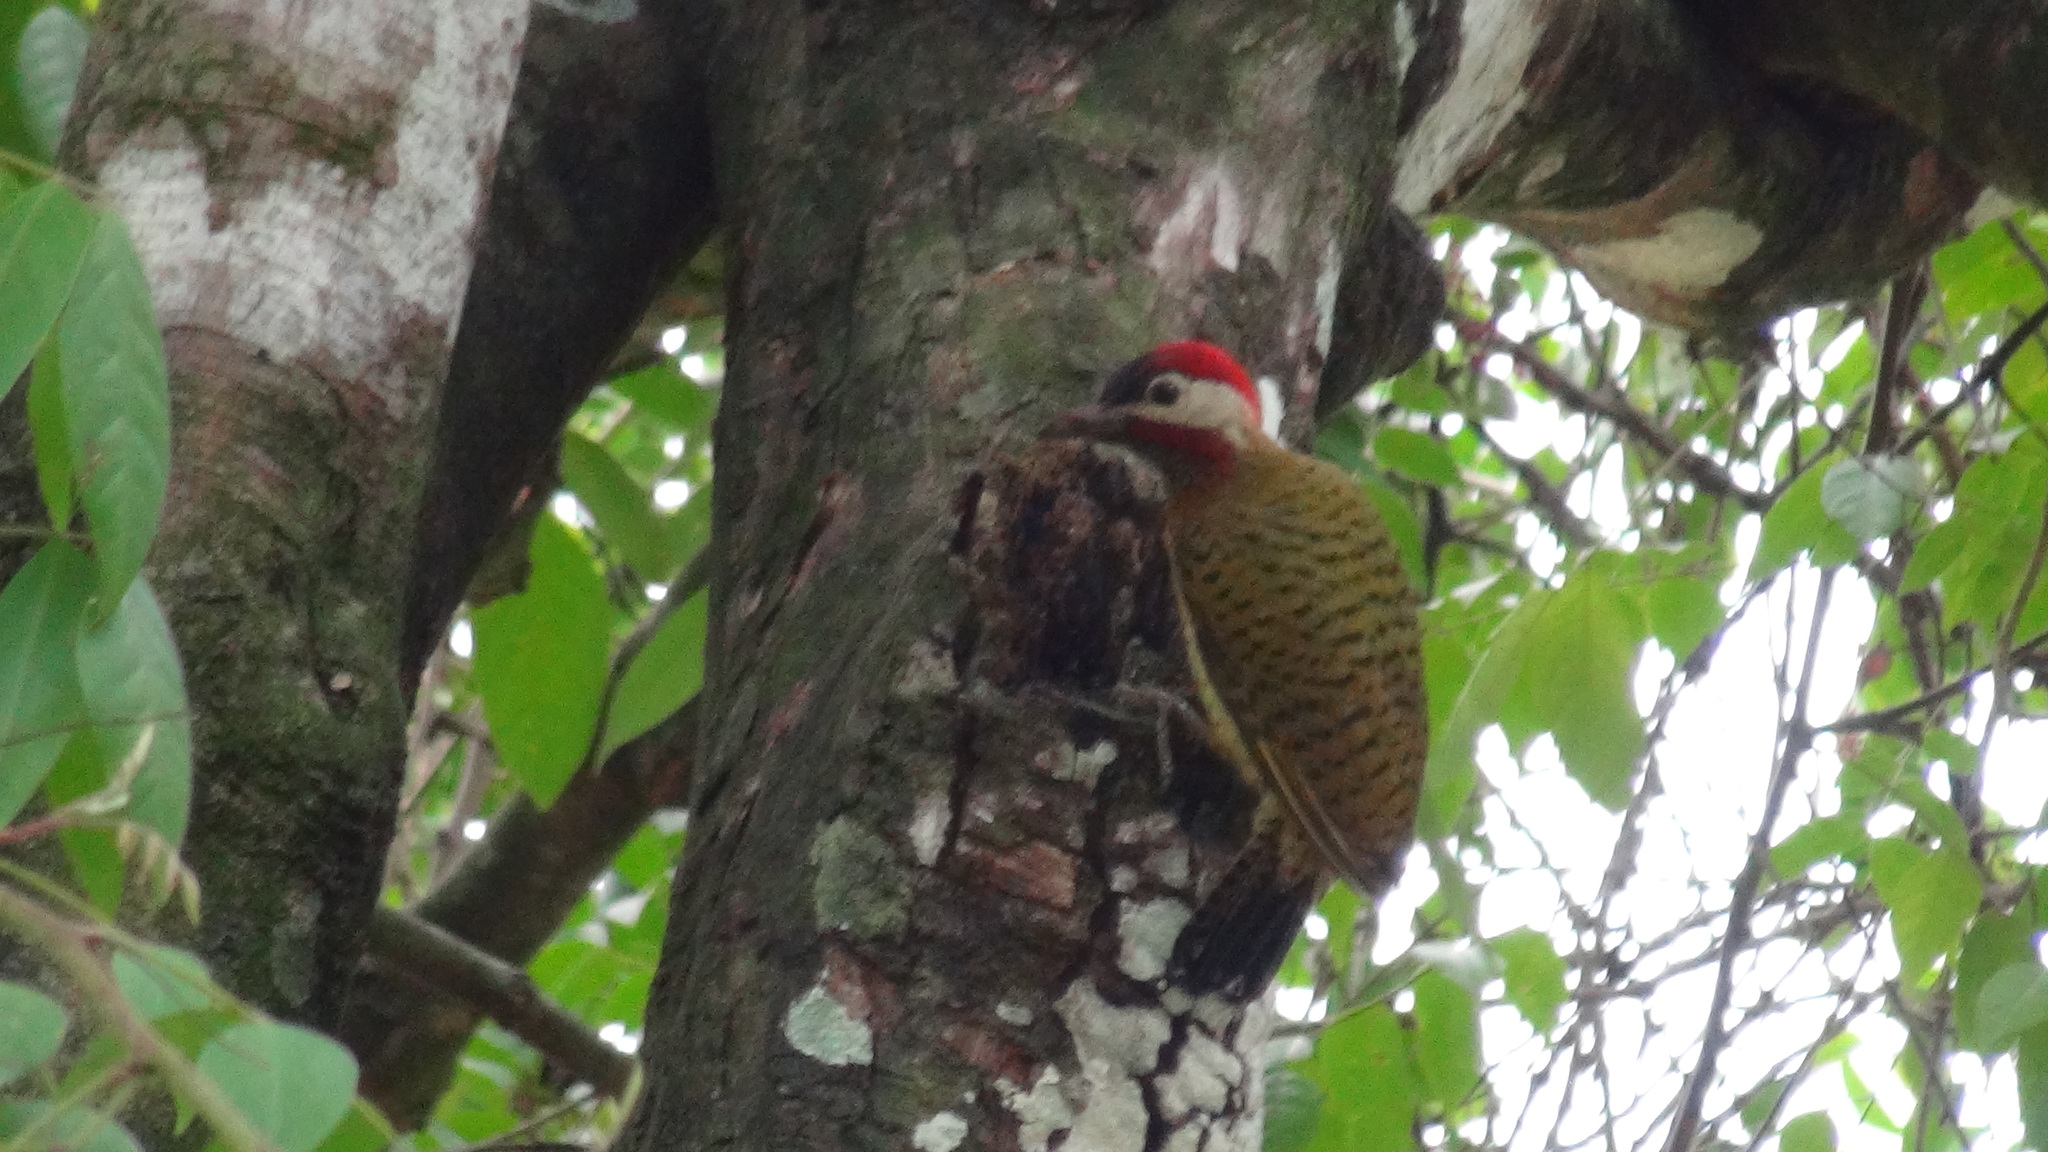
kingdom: Animalia
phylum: Chordata
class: Aves
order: Piciformes
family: Picidae
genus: Colaptes
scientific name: Colaptes punctigula
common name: Spot-breasted woodpecker
